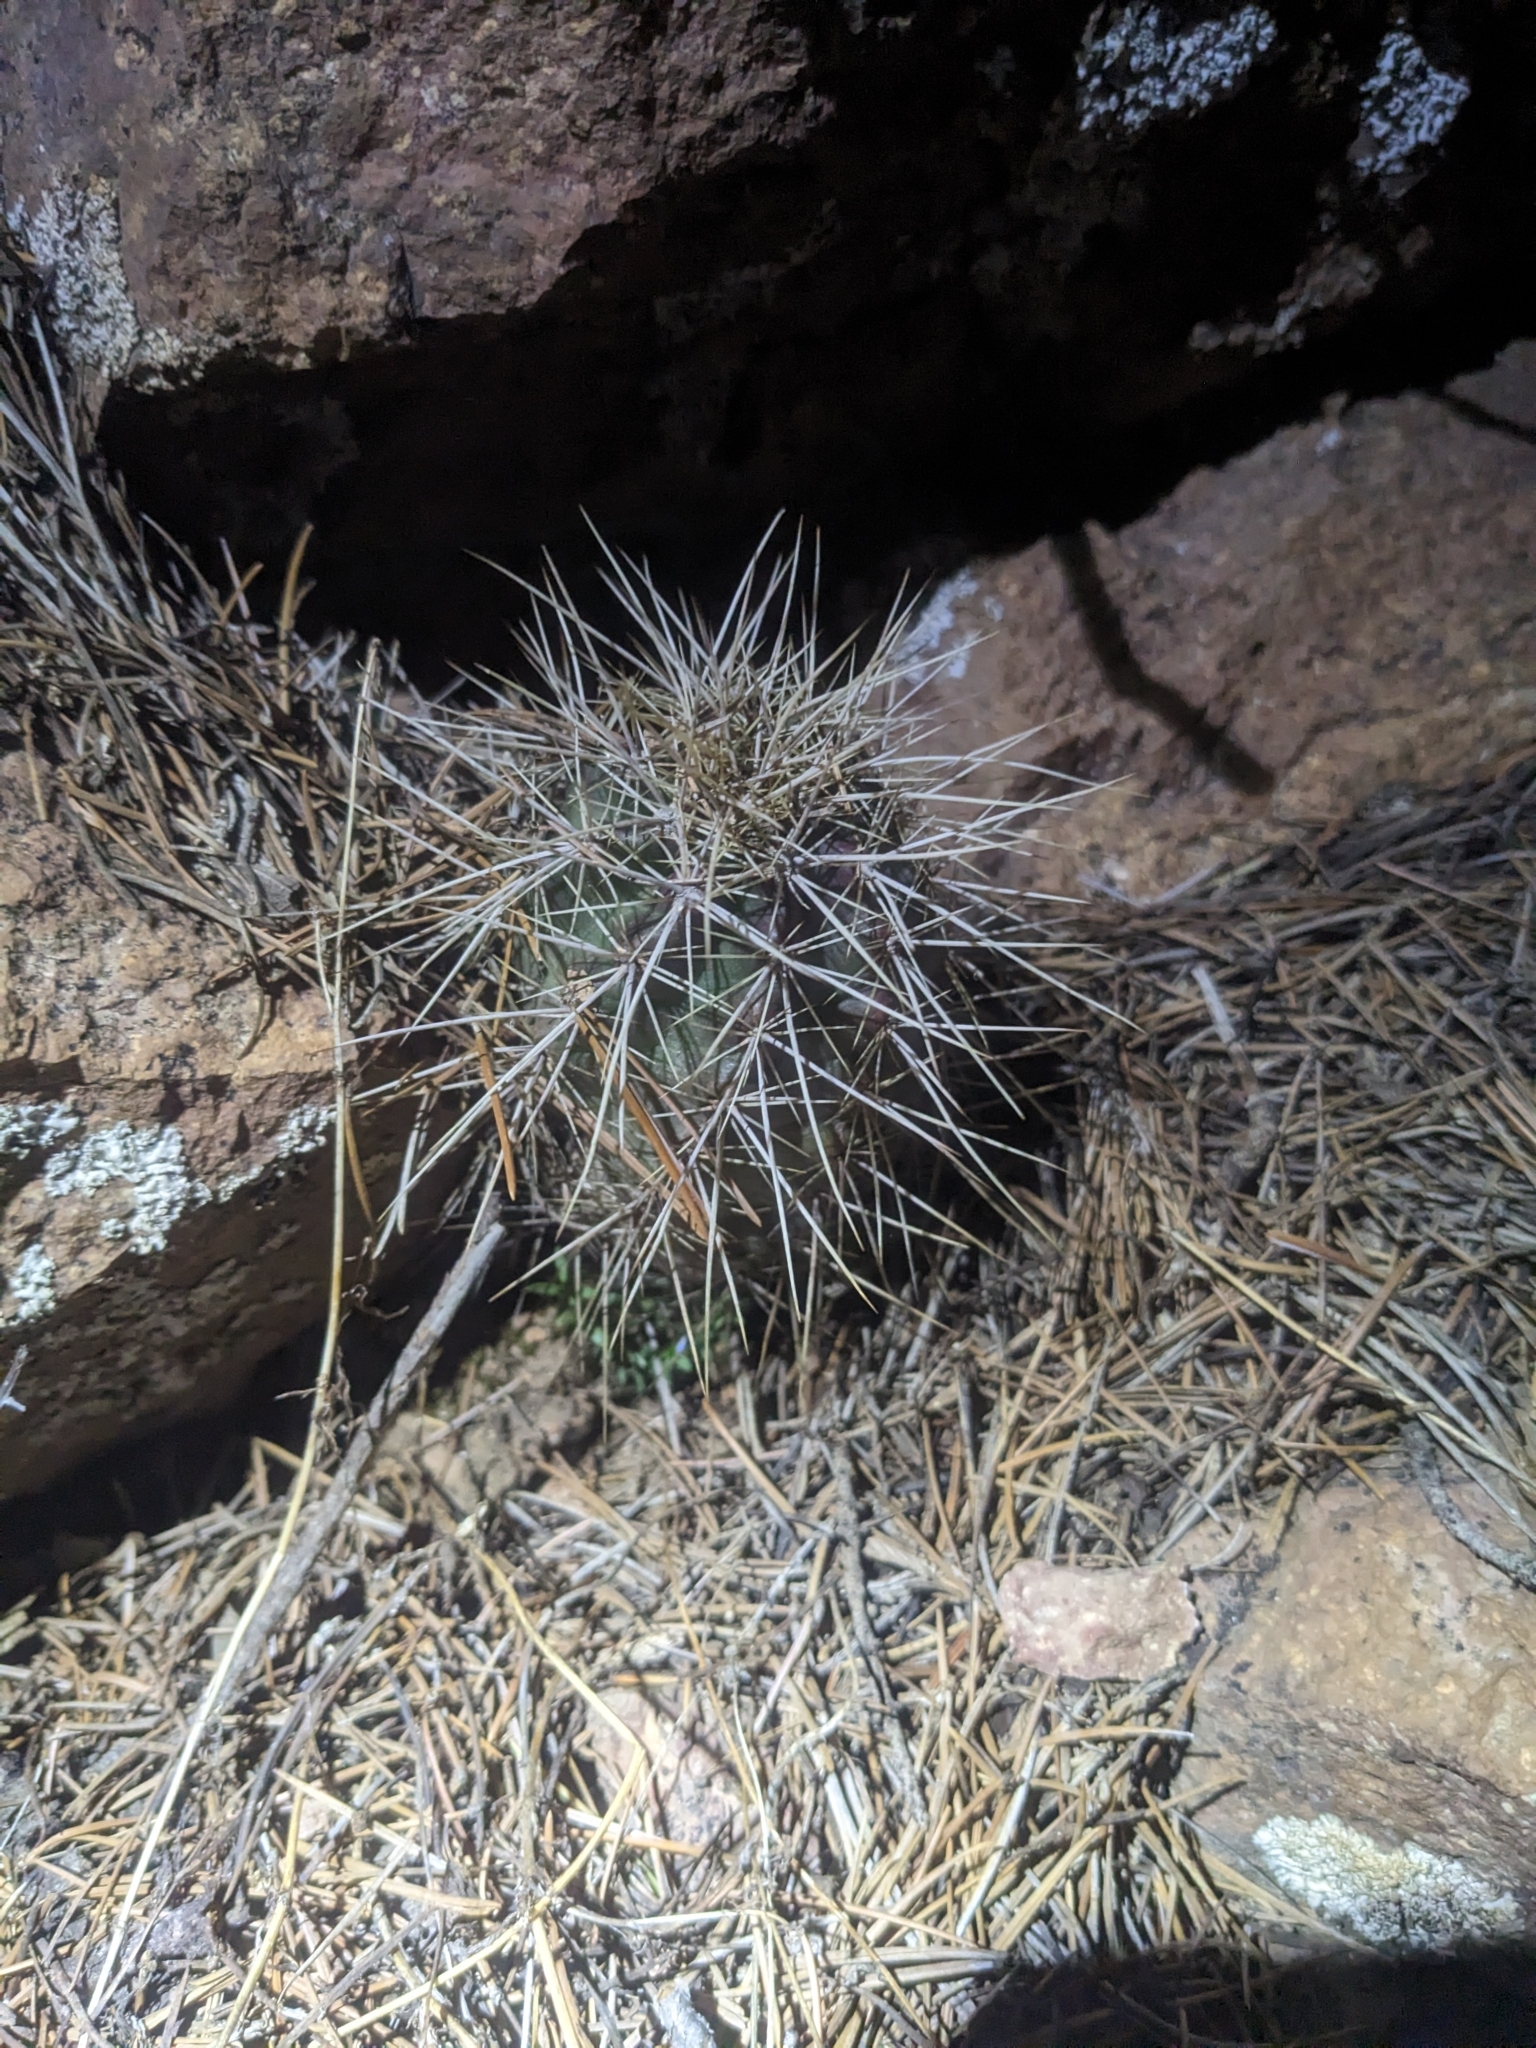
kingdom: Plantae
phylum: Tracheophyta
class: Magnoliopsida
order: Caryophyllales
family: Cactaceae
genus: Echinocereus
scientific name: Echinocereus coccineus
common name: Scarlet hedgehog cactus
